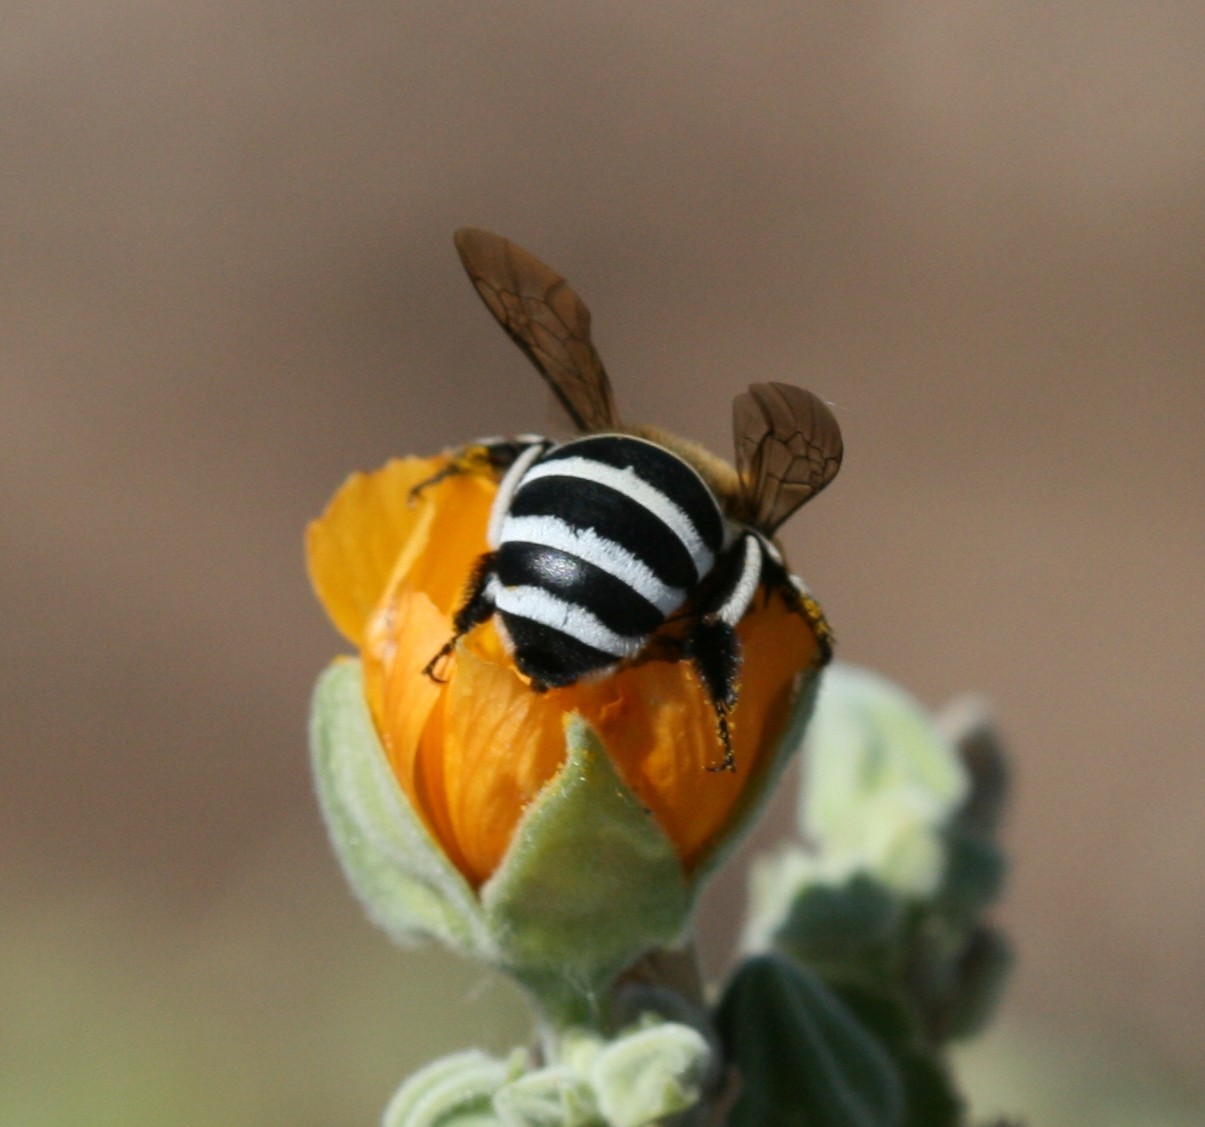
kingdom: Animalia
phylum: Arthropoda
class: Insecta
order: Hymenoptera
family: Apidae
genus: Amegilla
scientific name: Amegilla quadrifasciata
